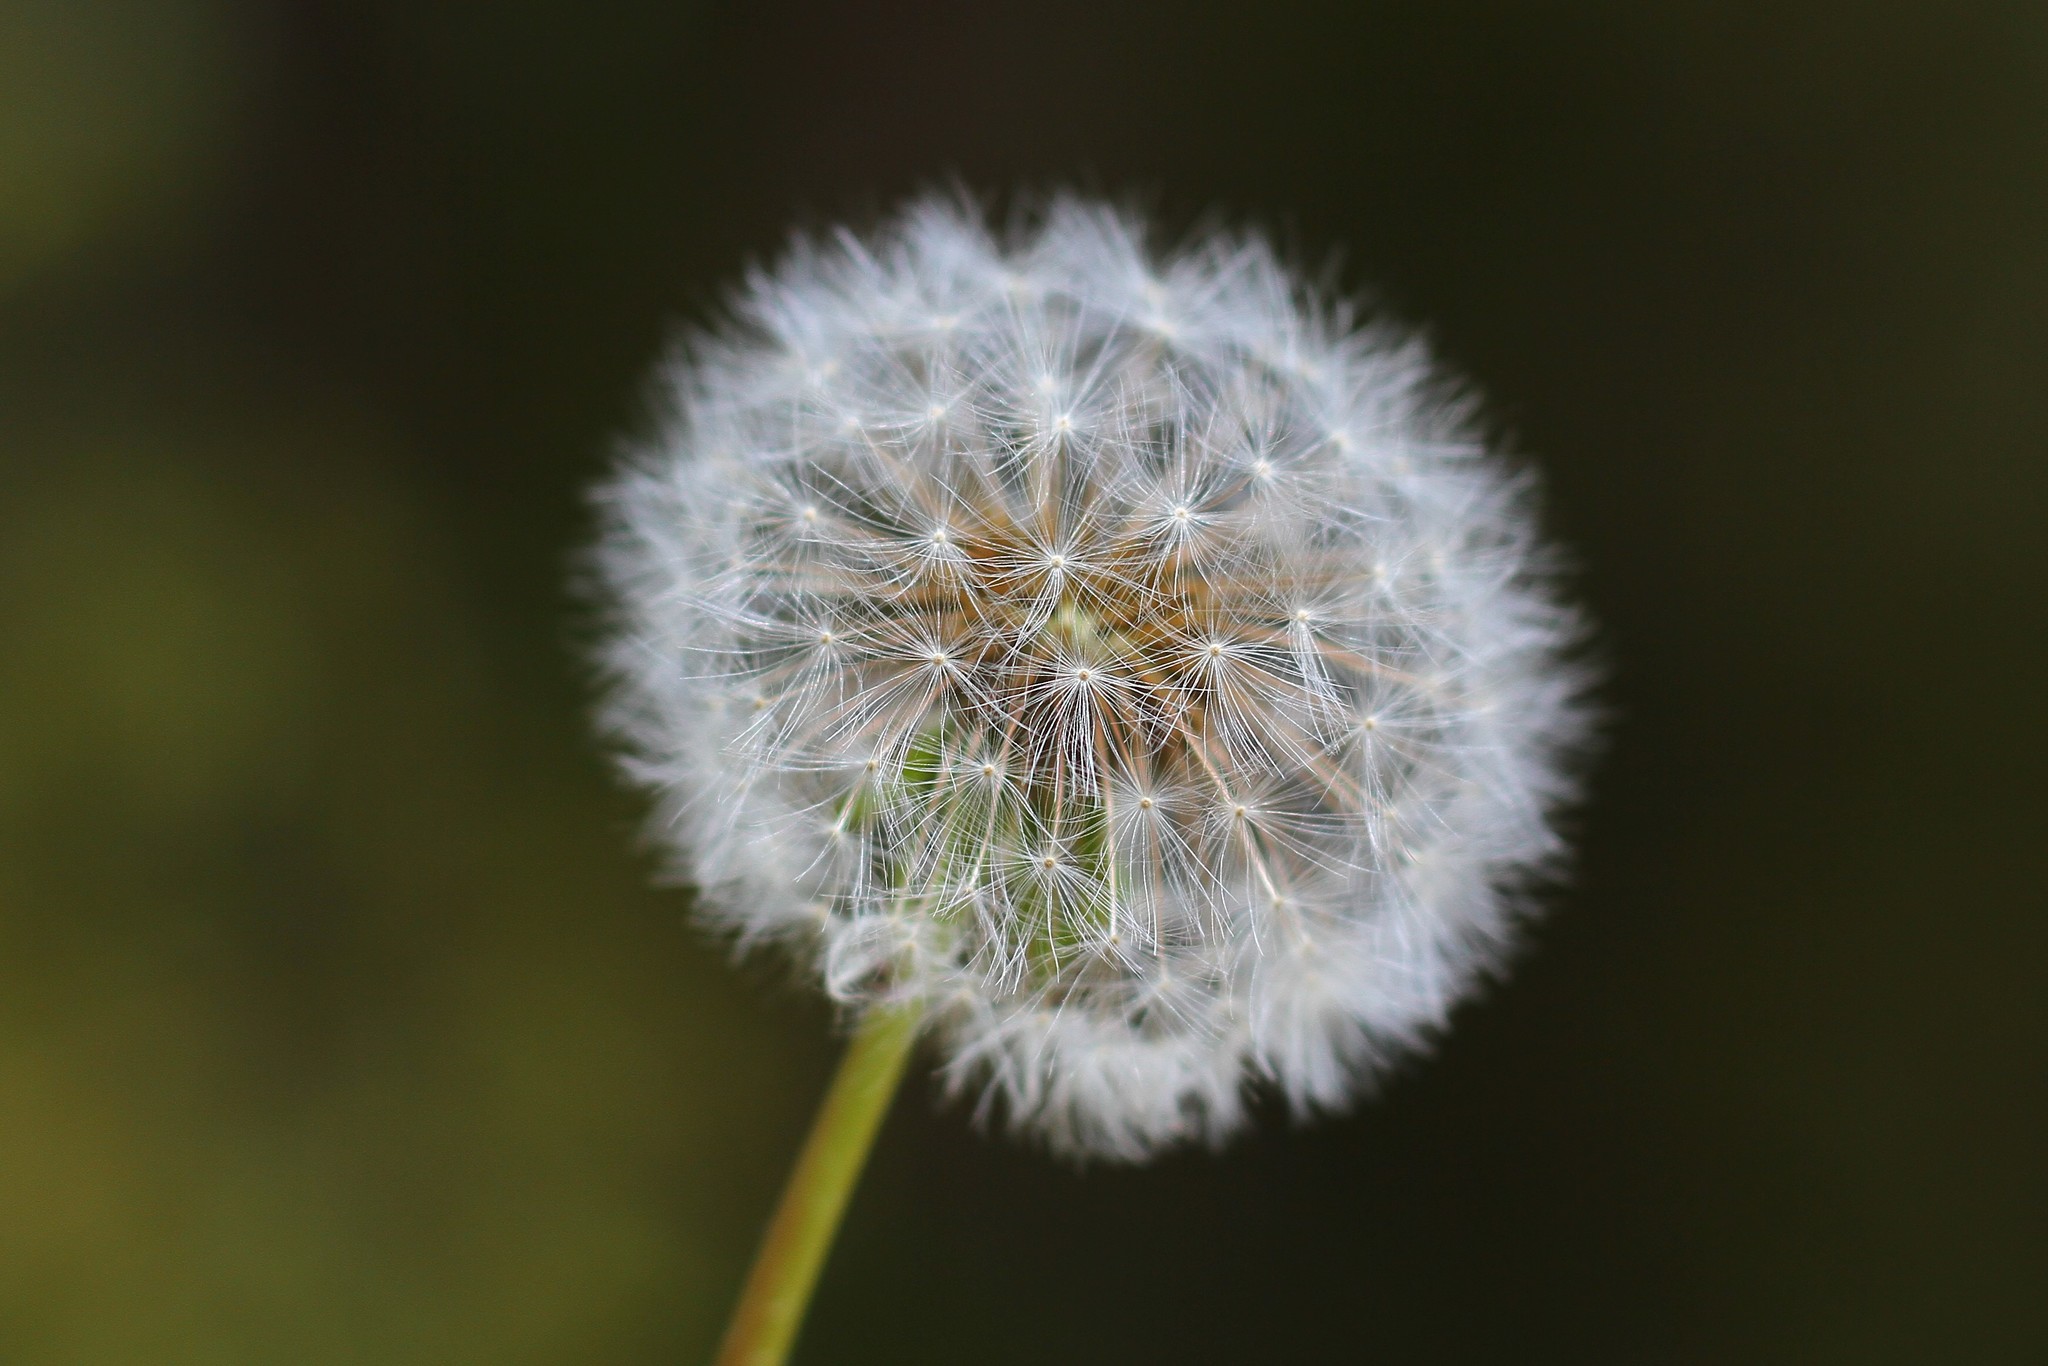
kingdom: Plantae
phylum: Tracheophyta
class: Magnoliopsida
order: Asterales
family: Asteraceae
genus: Taraxacum
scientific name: Taraxacum officinale
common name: Common dandelion
